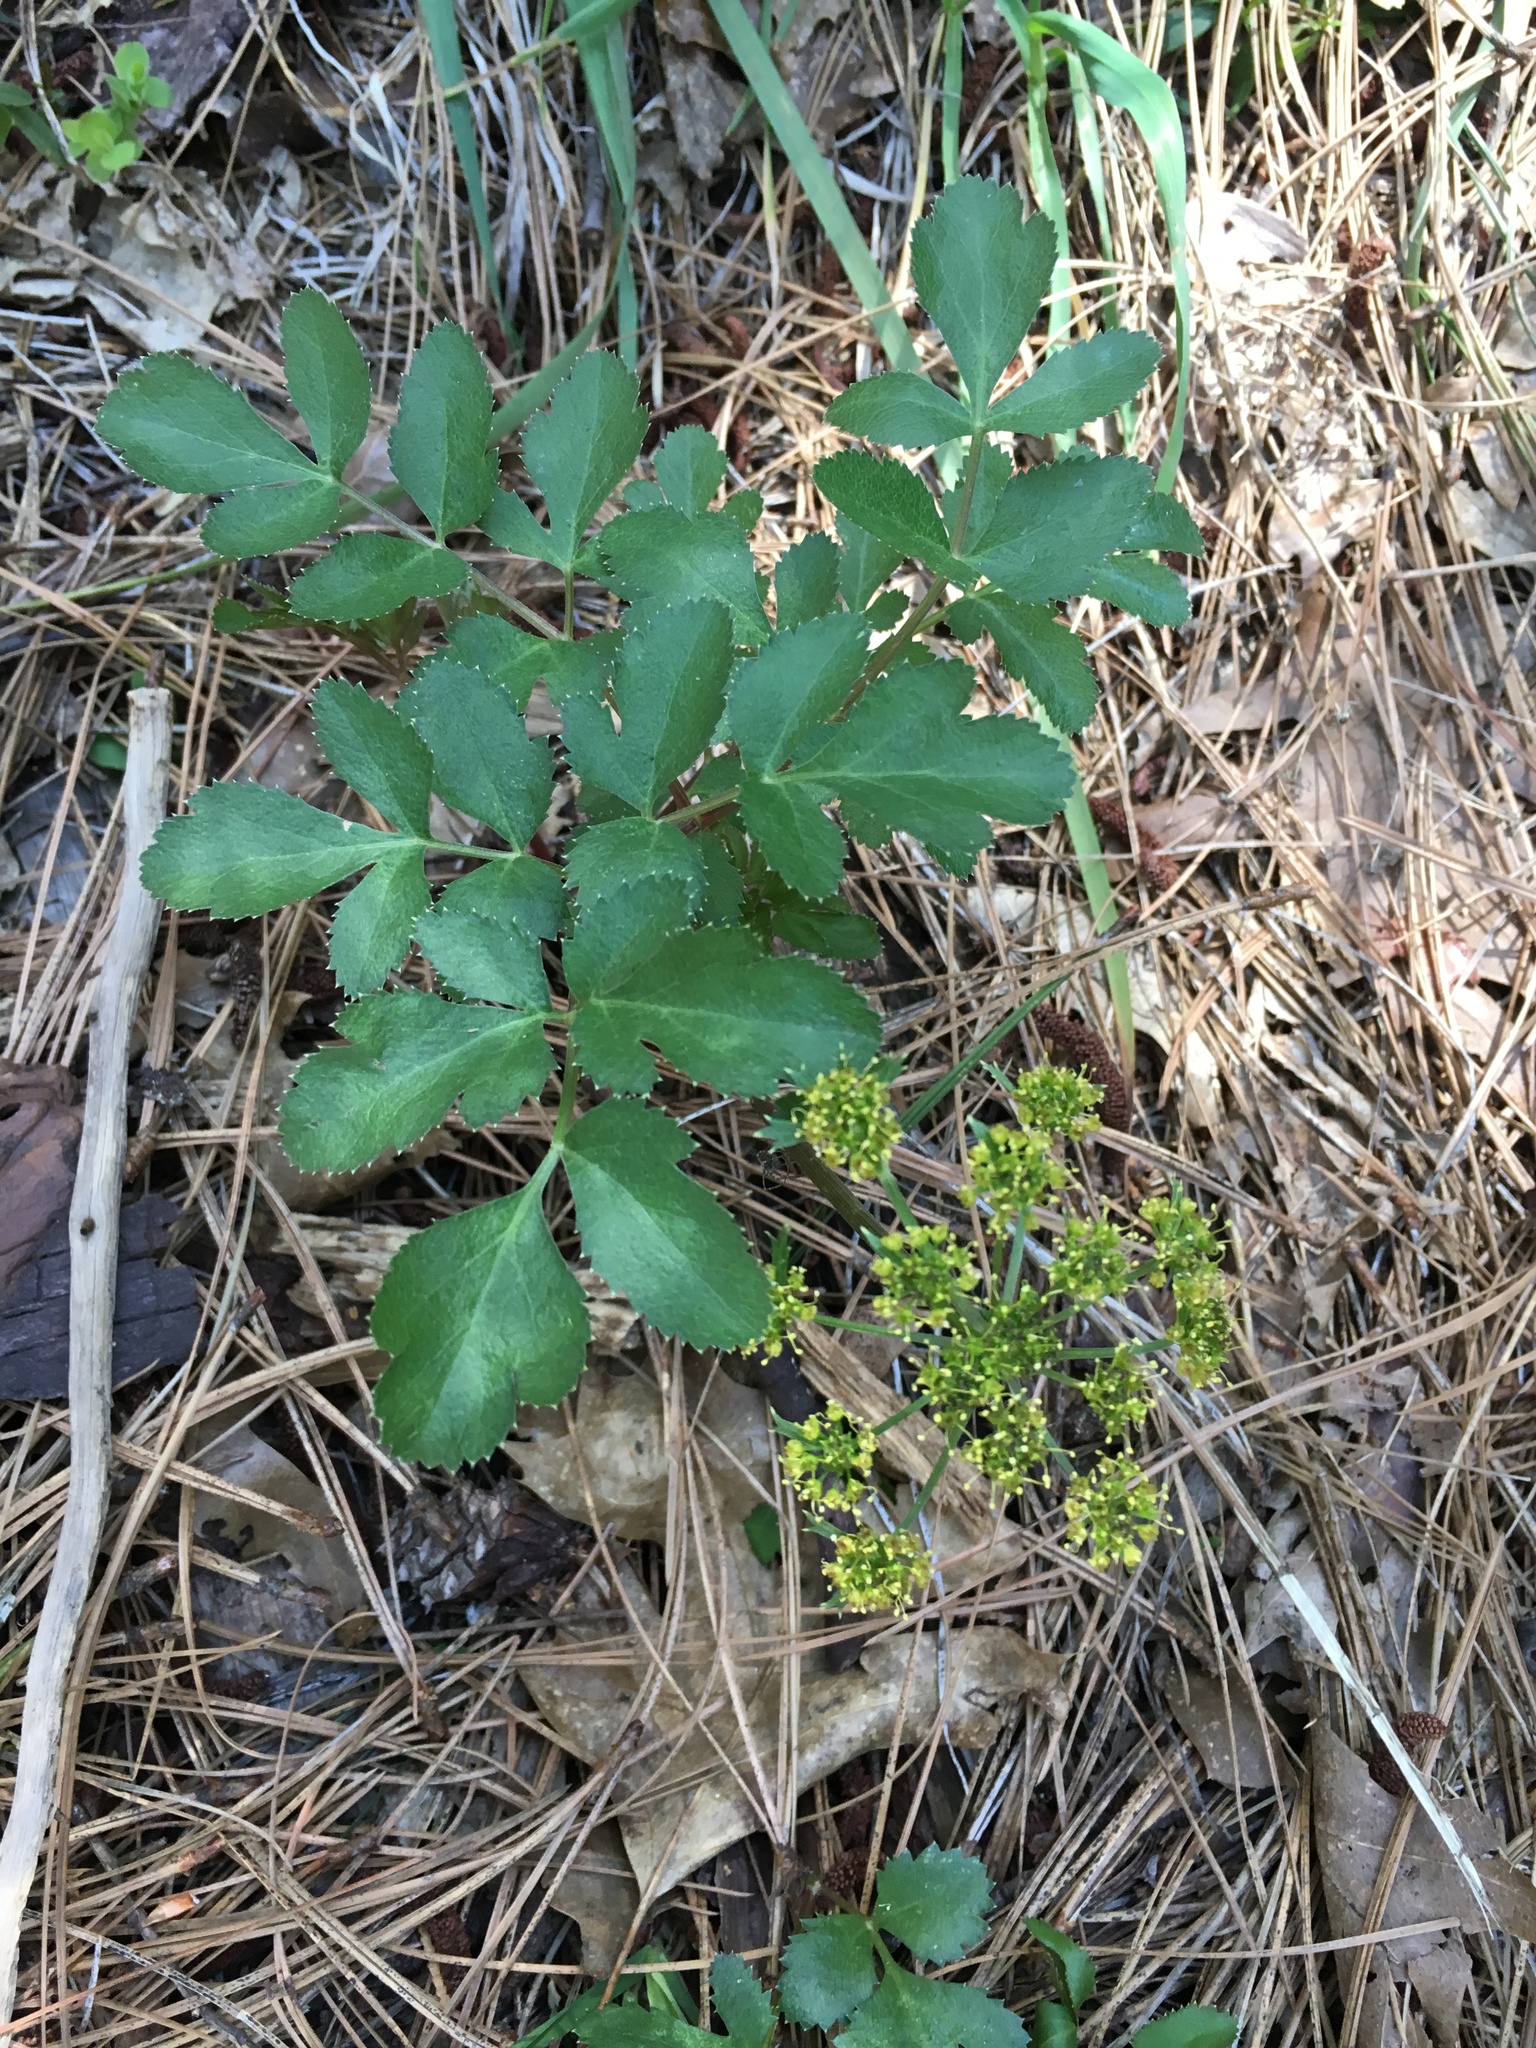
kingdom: Plantae
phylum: Tracheophyta
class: Magnoliopsida
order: Apiales
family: Apiaceae
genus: Tauschia
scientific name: Tauschia hartwegii
